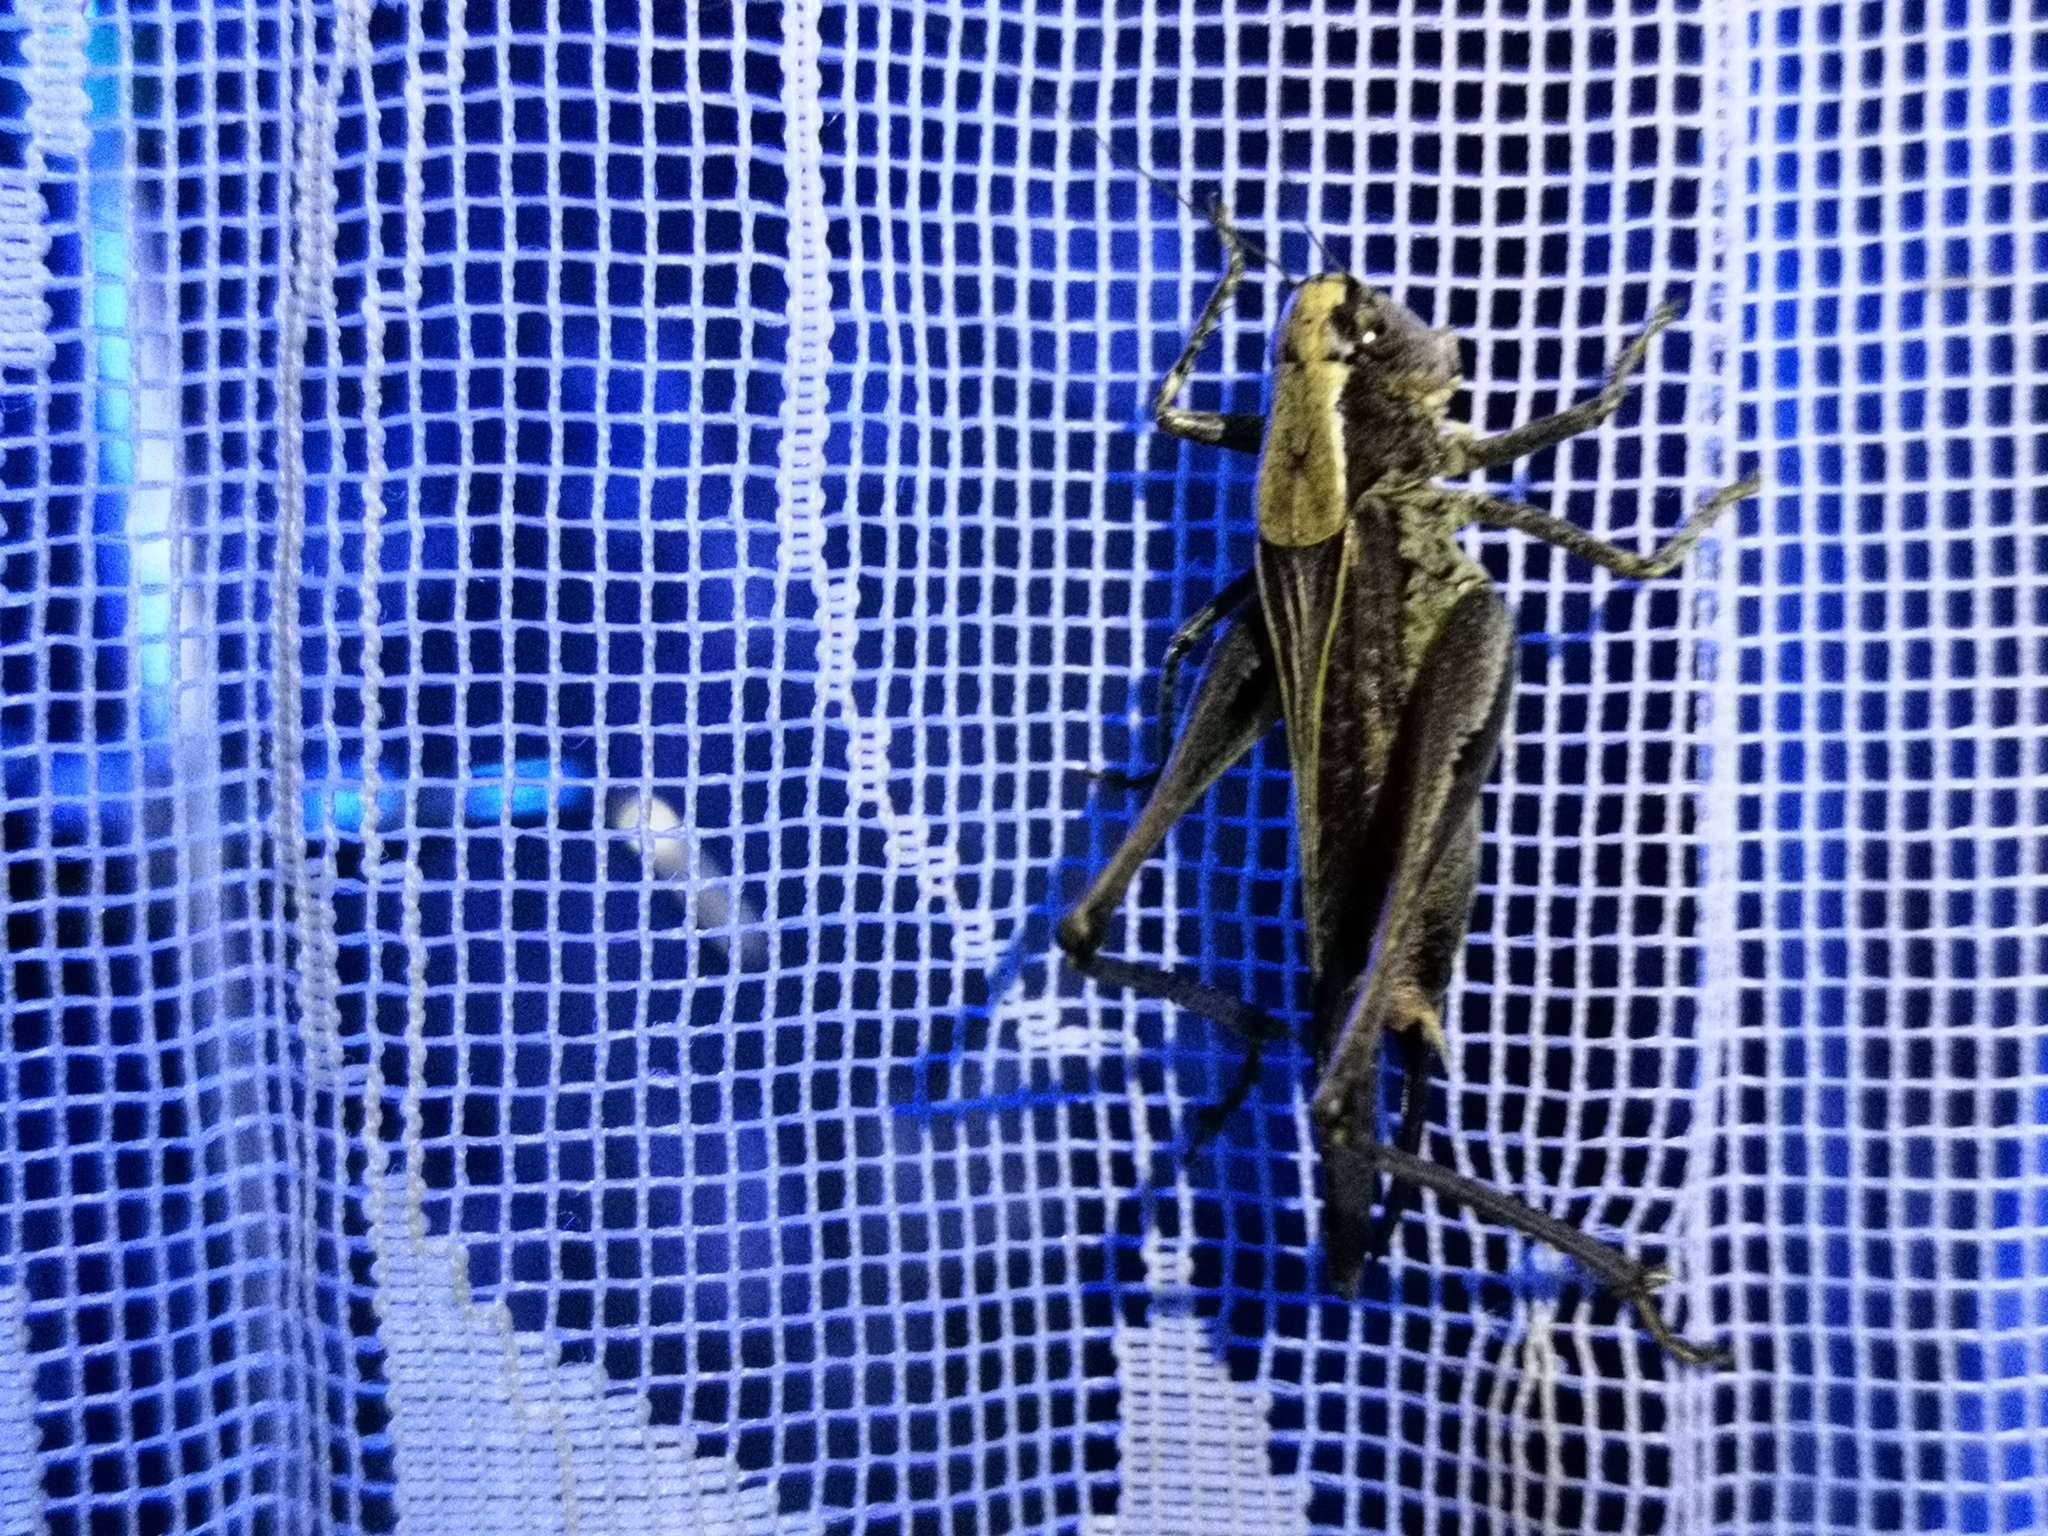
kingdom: Animalia
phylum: Arthropoda
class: Insecta
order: Orthoptera
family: Tettigoniidae
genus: Platycleis
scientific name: Platycleis albopunctata
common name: Grey bush-cricket
